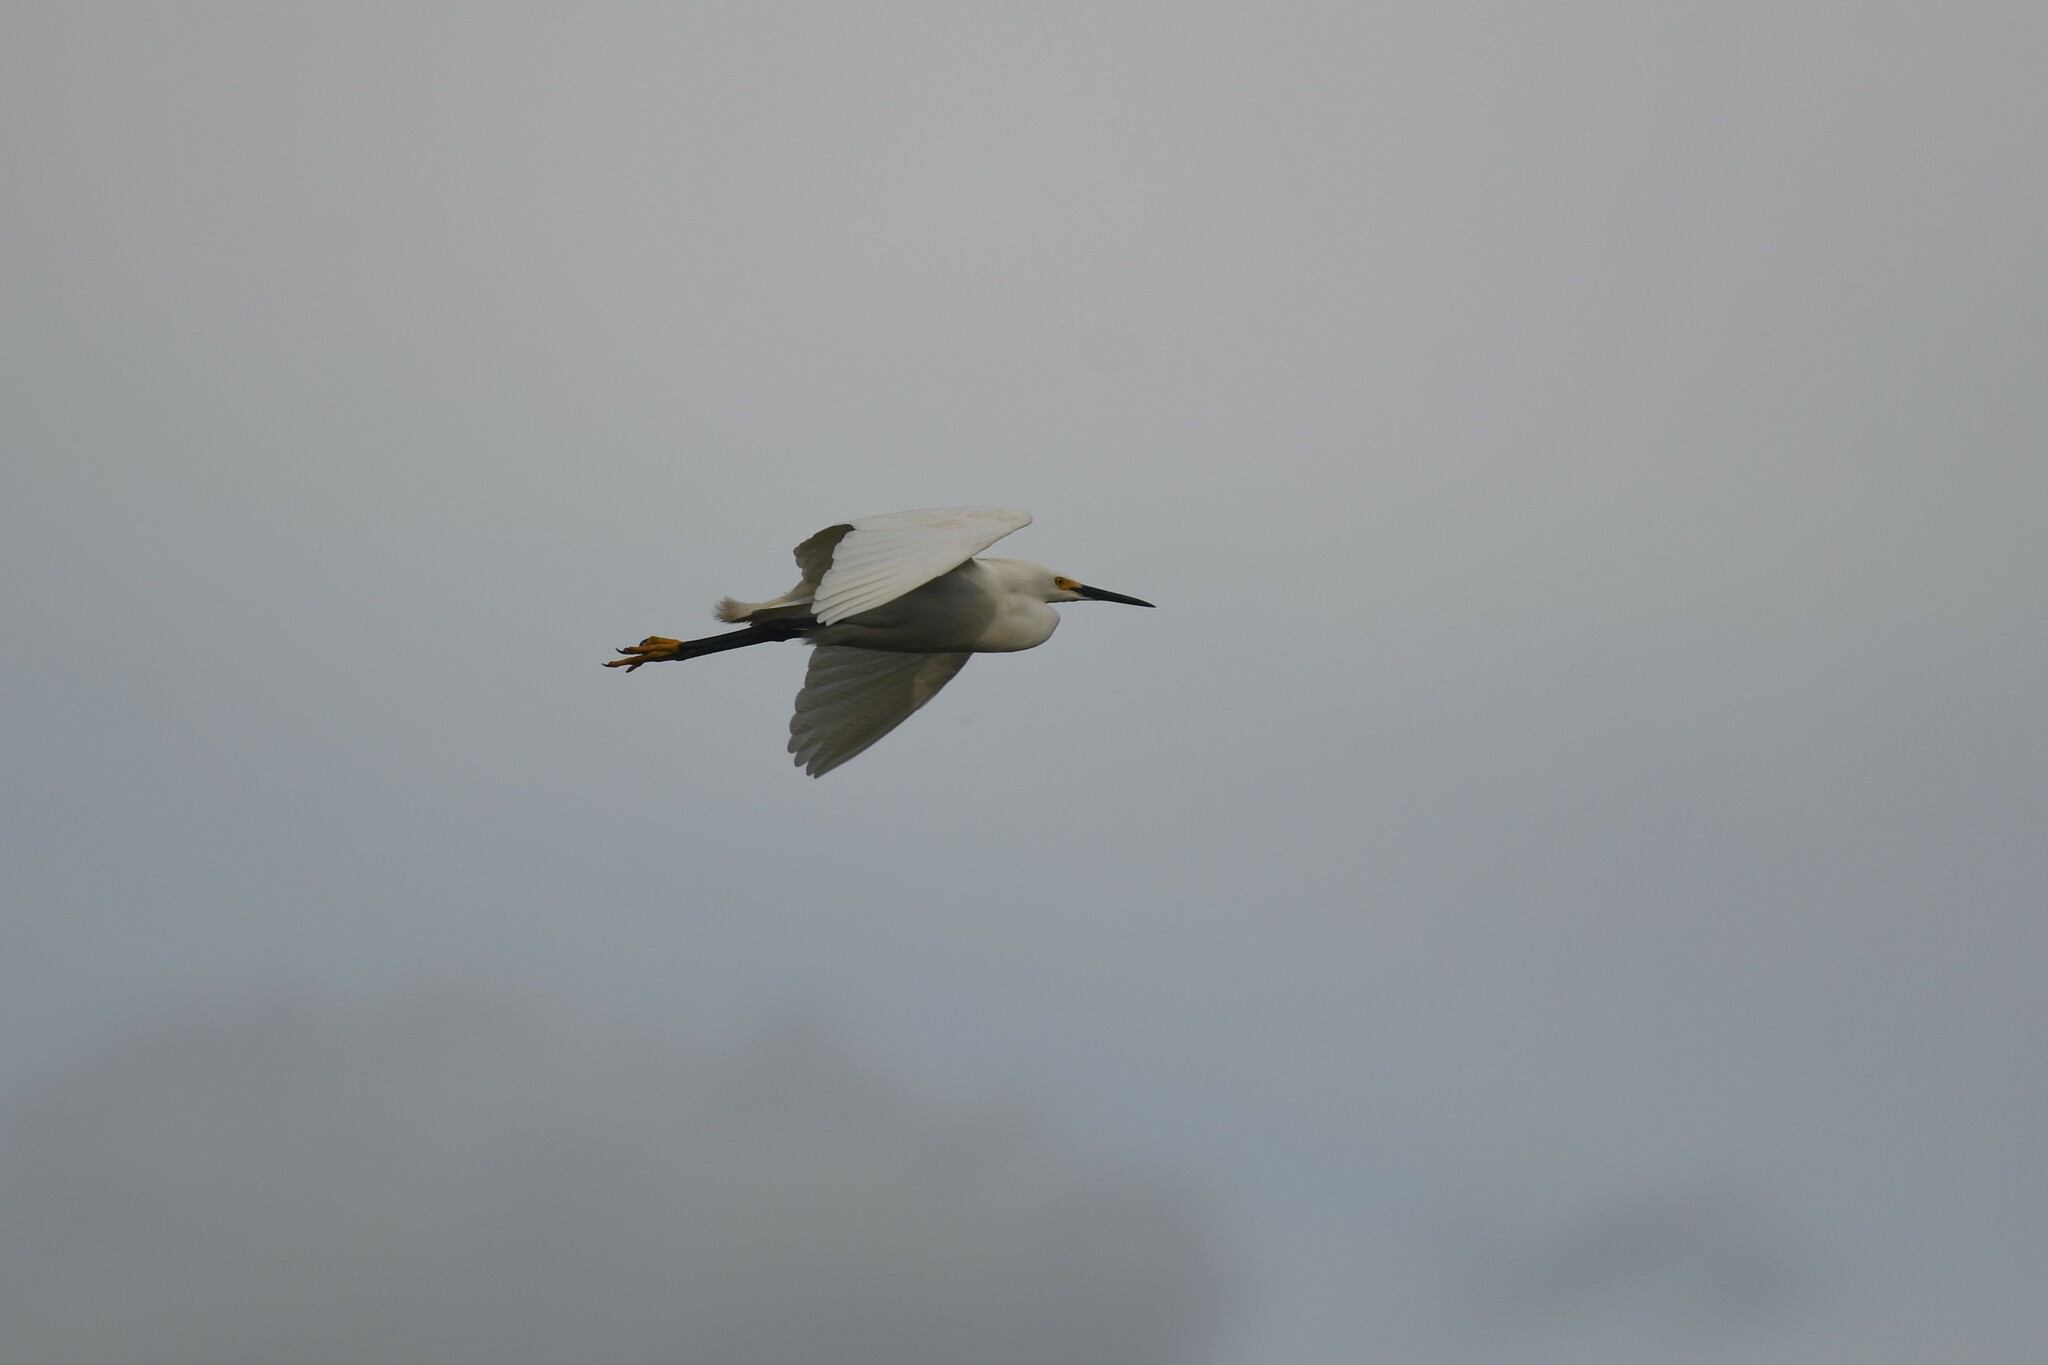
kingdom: Animalia
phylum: Chordata
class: Aves
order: Pelecaniformes
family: Ardeidae
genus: Egretta
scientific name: Egretta thula
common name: Snowy egret
